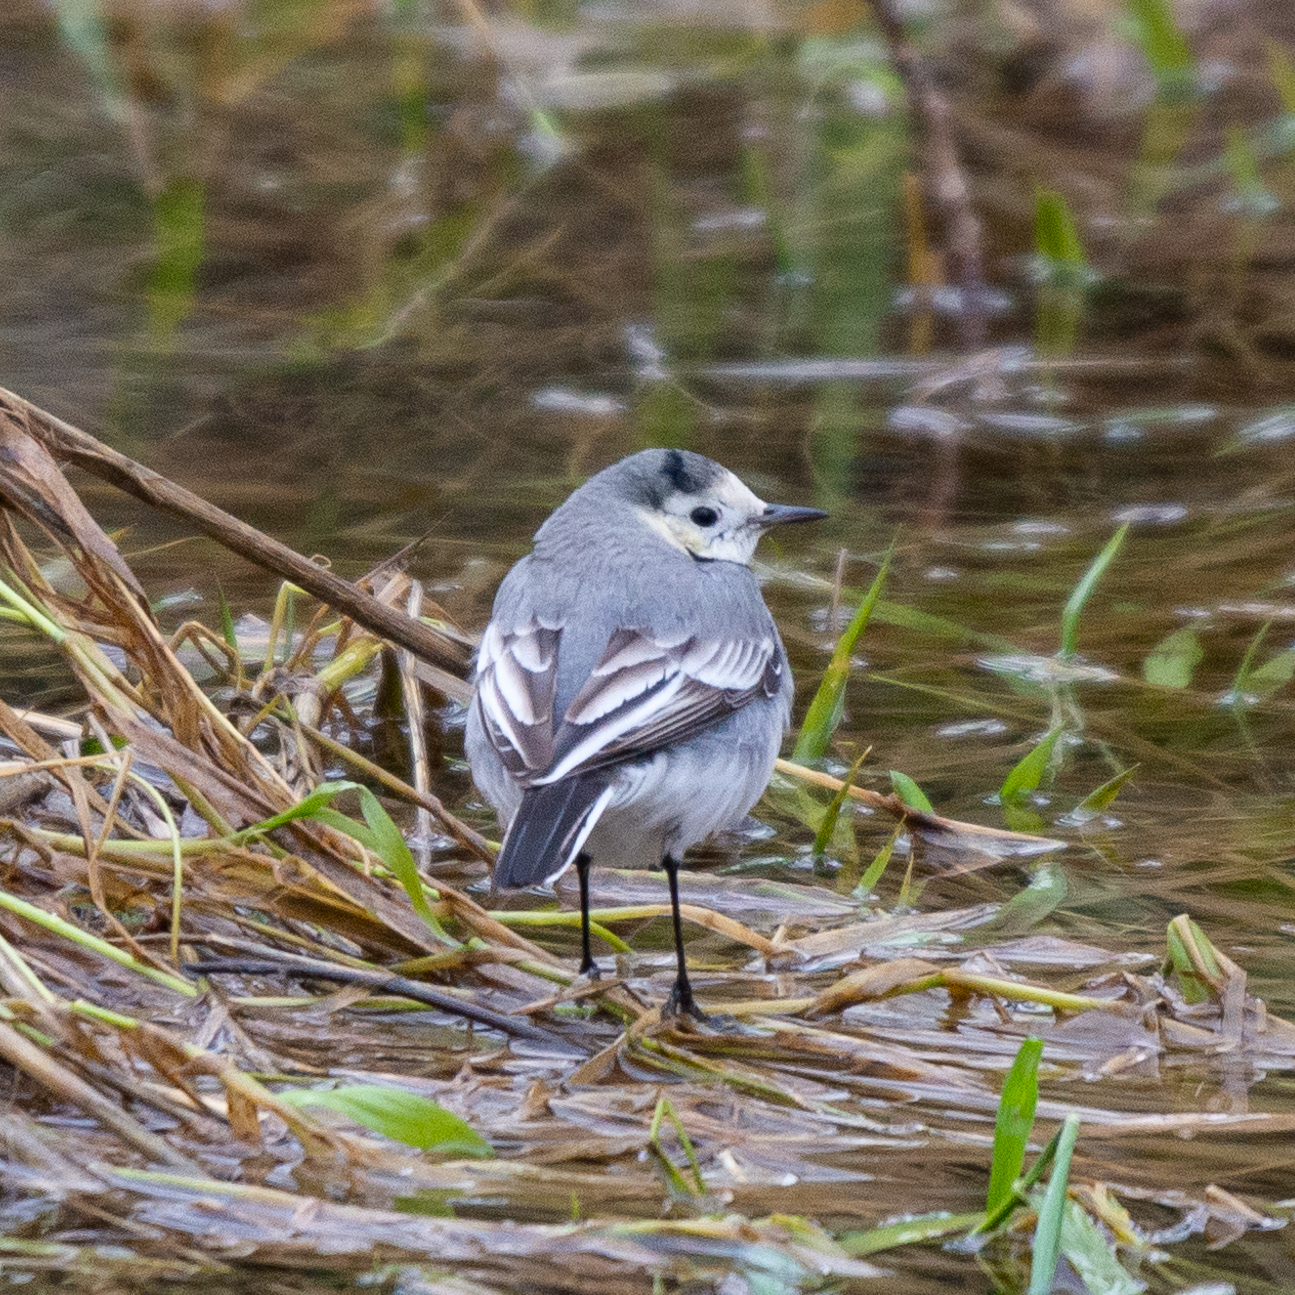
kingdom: Animalia
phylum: Chordata
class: Aves
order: Passeriformes
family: Motacillidae
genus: Motacilla
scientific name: Motacilla alba
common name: White wagtail
